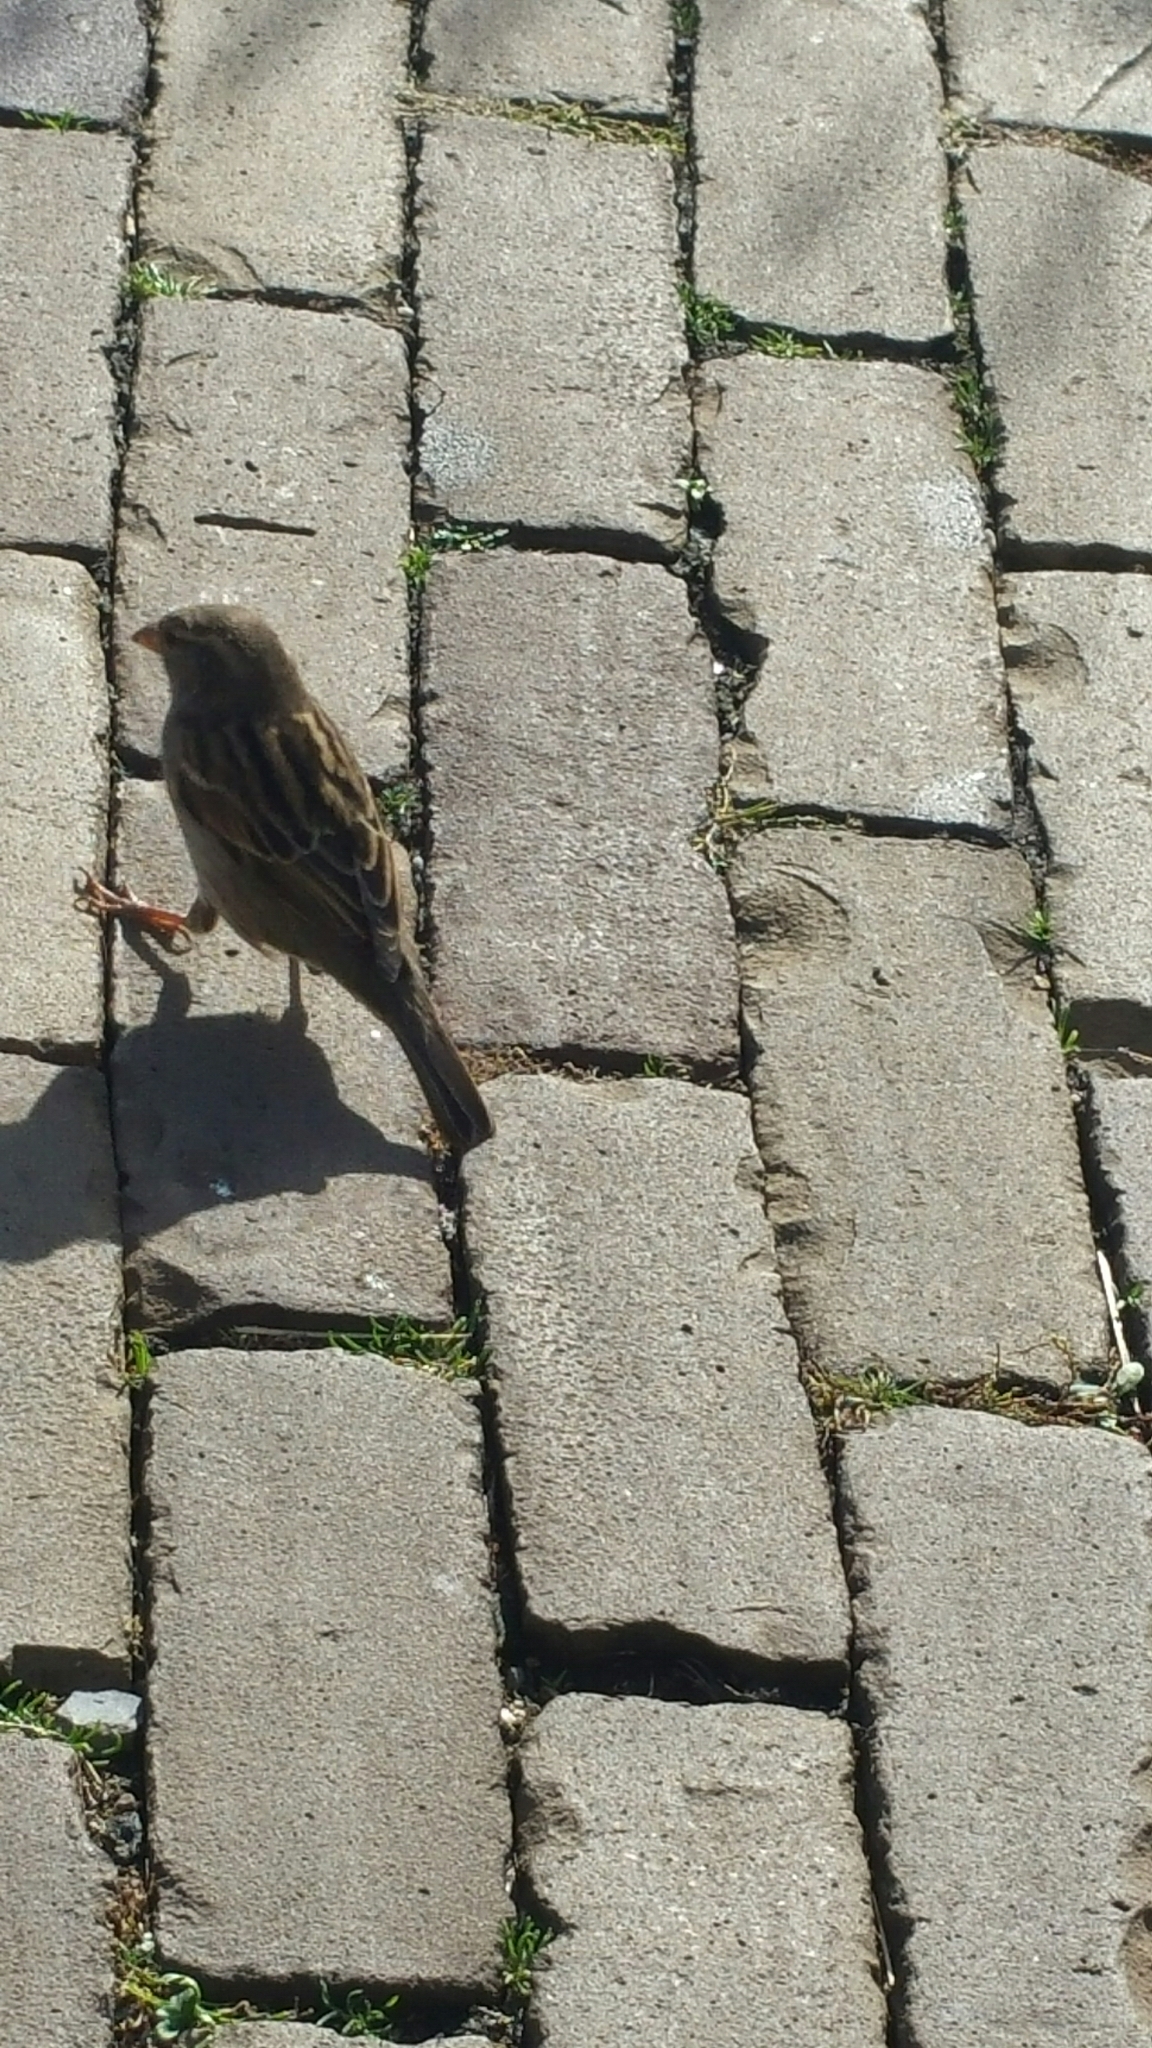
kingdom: Animalia
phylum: Chordata
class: Aves
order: Passeriformes
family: Passeridae
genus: Passer
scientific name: Passer domesticus
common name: House sparrow
